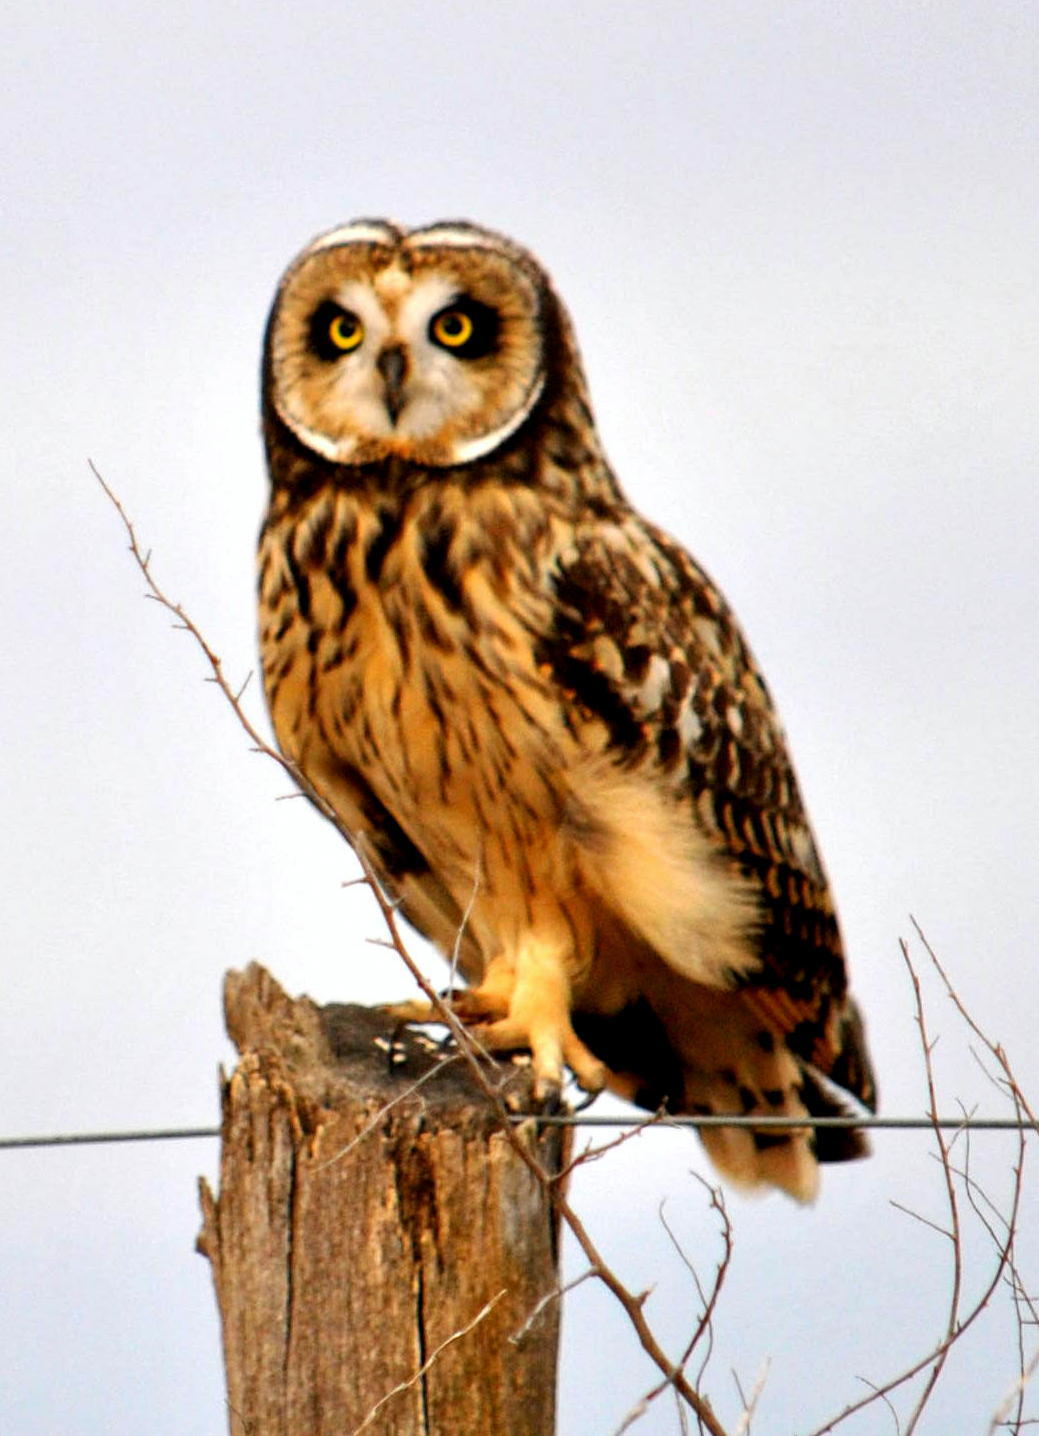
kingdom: Animalia
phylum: Chordata
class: Aves
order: Strigiformes
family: Strigidae
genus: Asio
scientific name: Asio flammeus
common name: Short-eared owl
